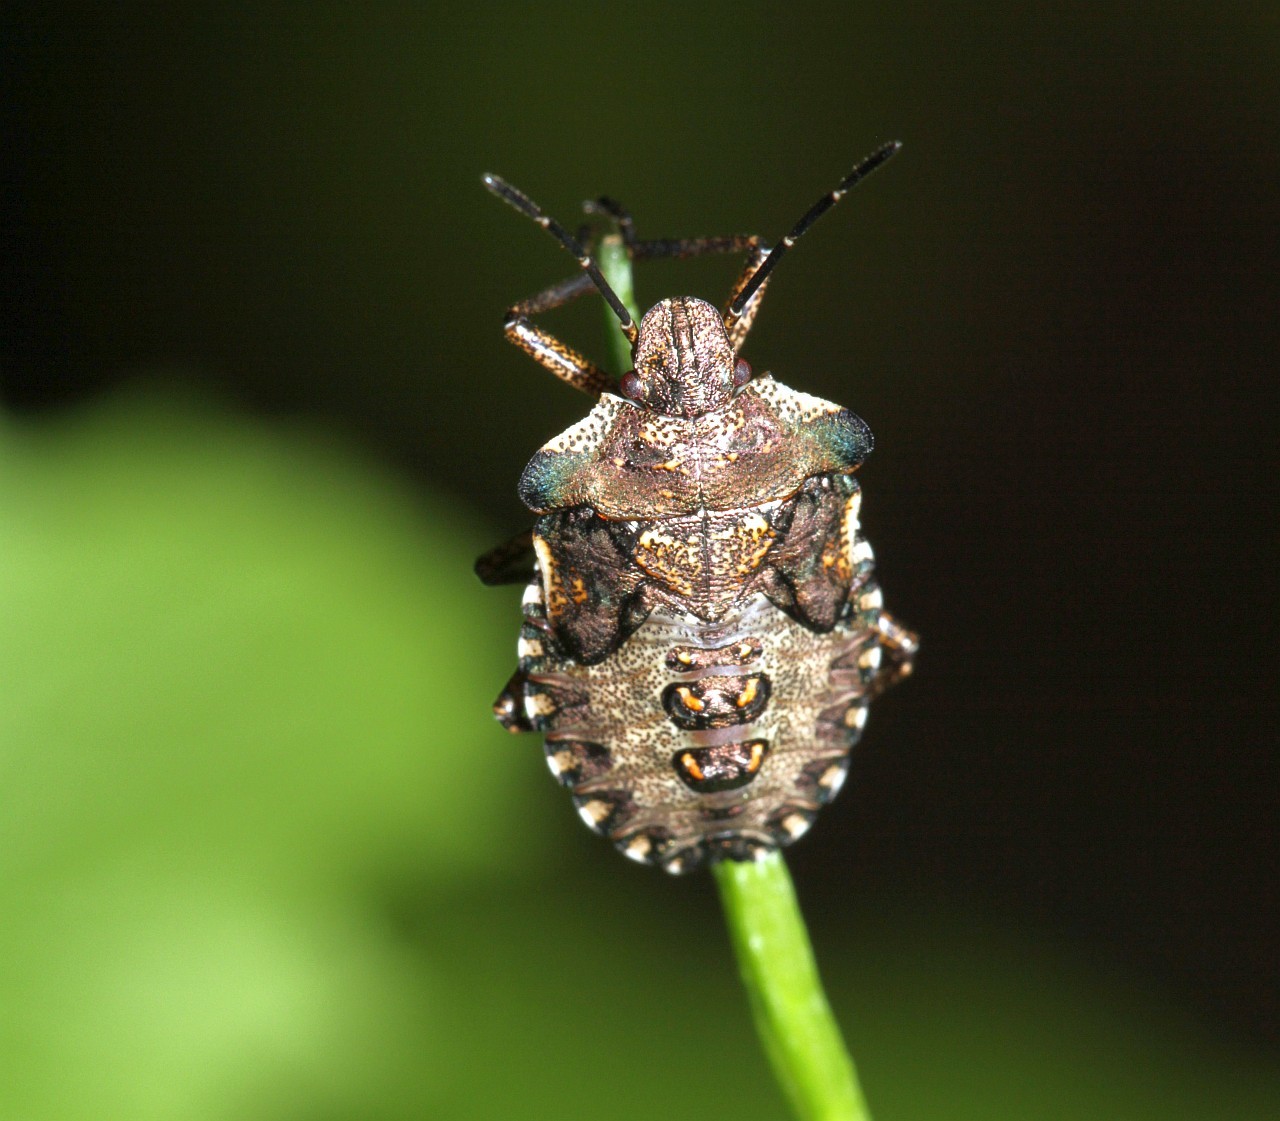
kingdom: Animalia
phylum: Arthropoda
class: Insecta
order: Hemiptera
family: Pentatomidae
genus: Pentatoma
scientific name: Pentatoma rufipes
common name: Forest bug
